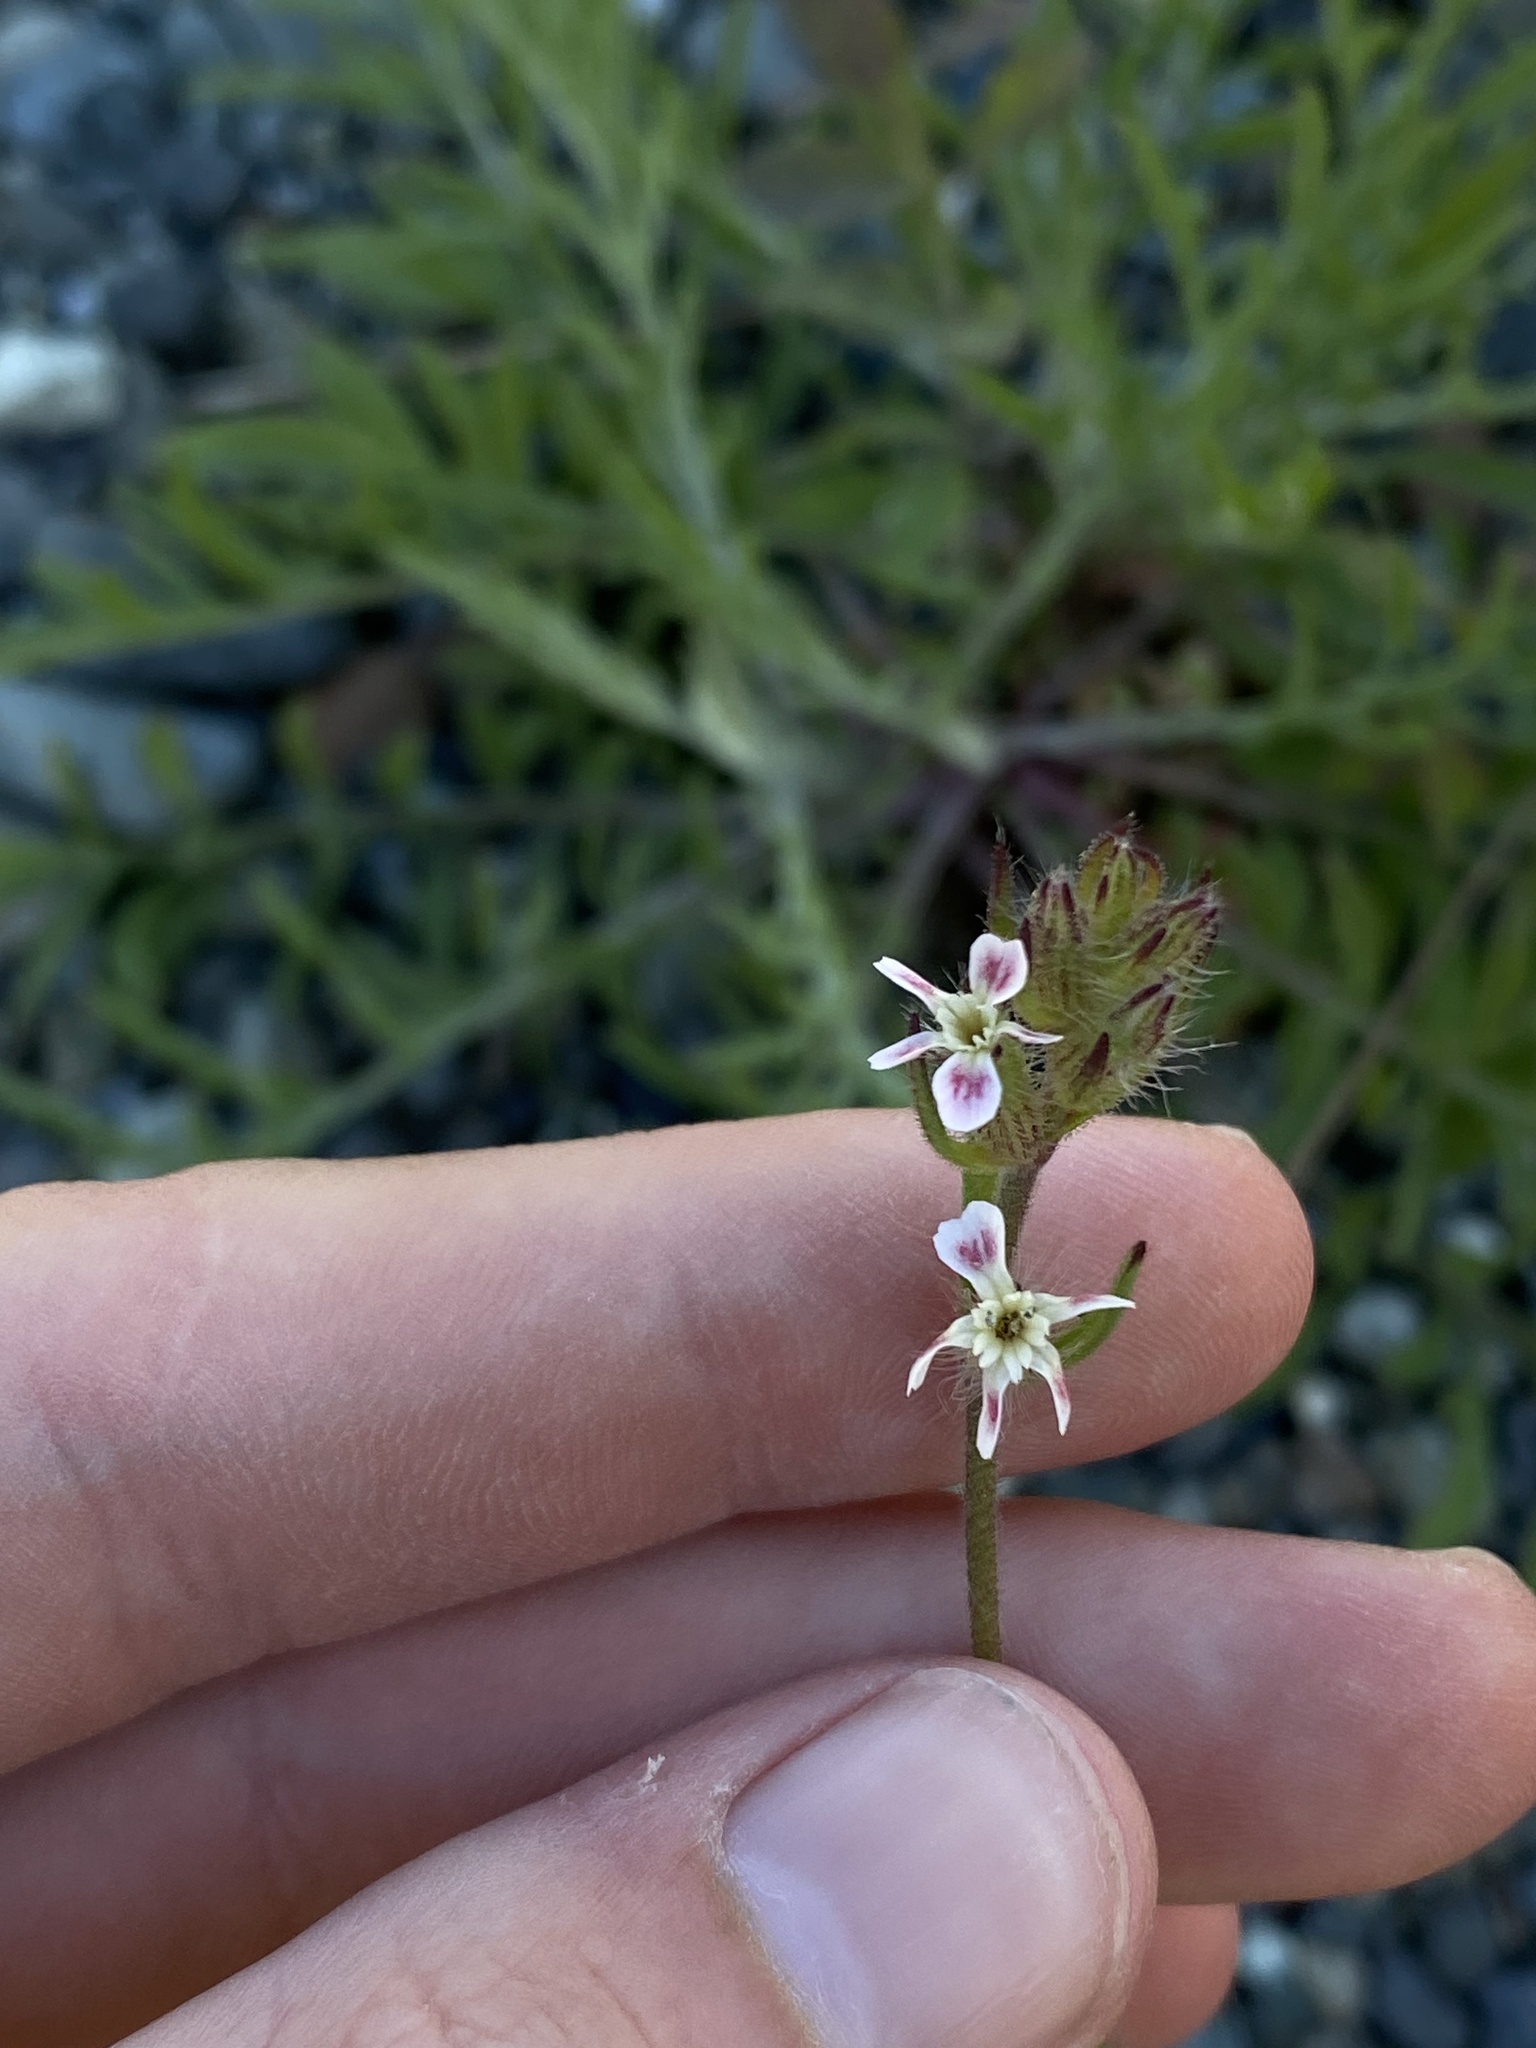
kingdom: Plantae
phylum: Tracheophyta
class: Magnoliopsida
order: Caryophyllales
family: Caryophyllaceae
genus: Silene
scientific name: Silene gallica
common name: Small-flowered catchfly
